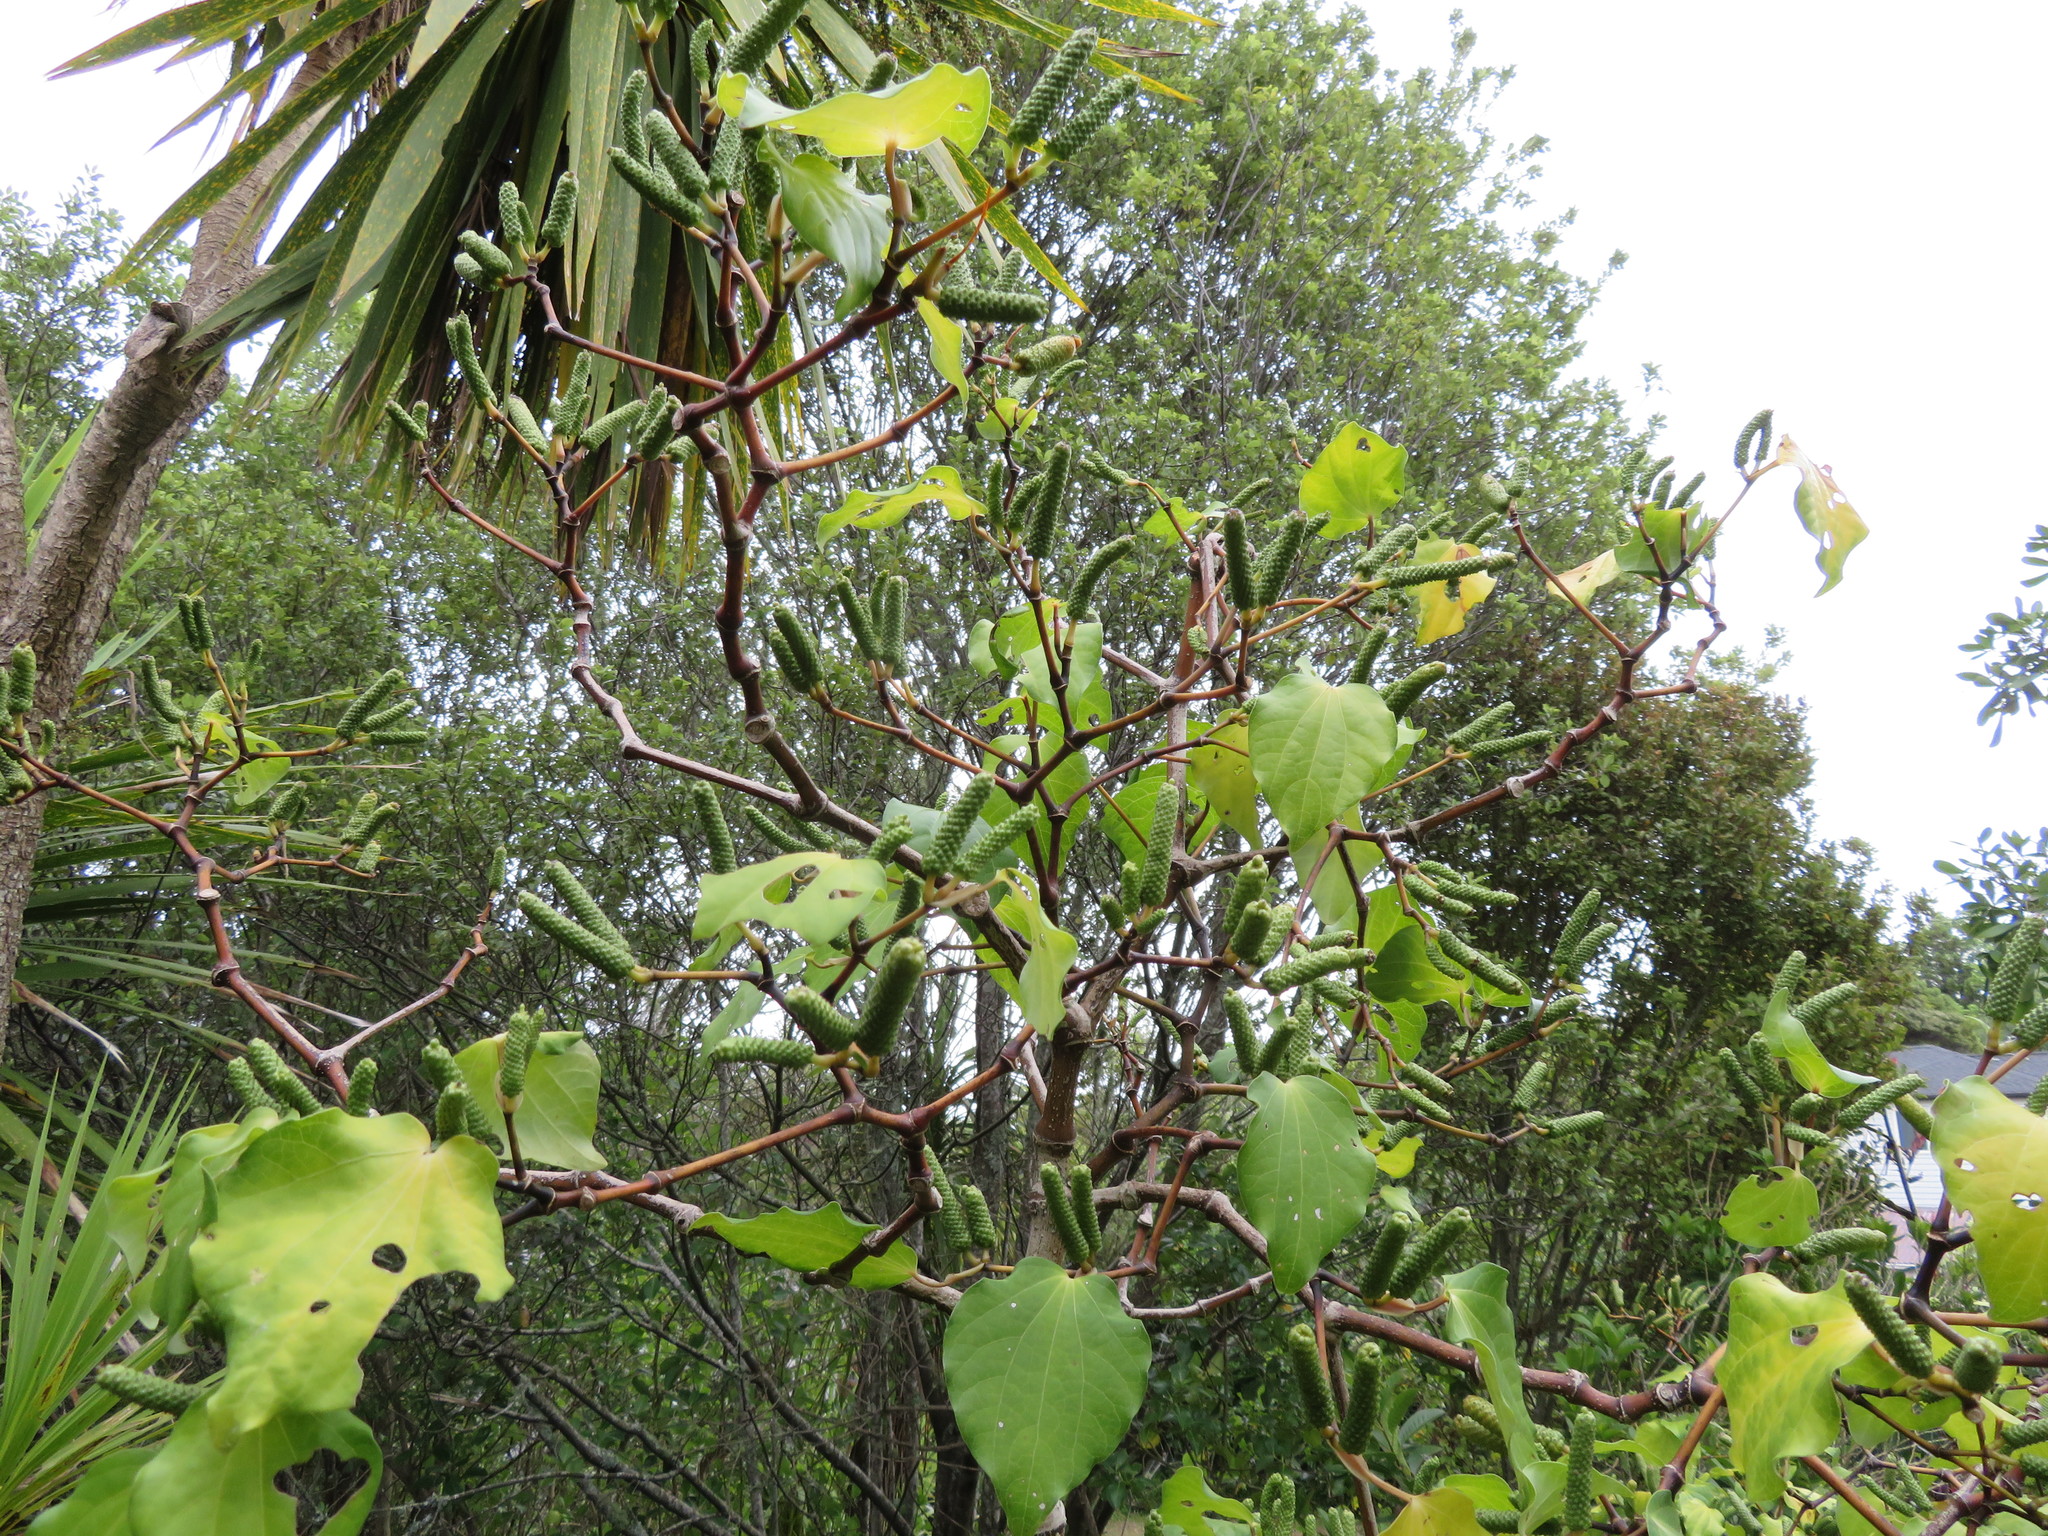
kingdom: Plantae
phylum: Tracheophyta
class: Magnoliopsida
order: Piperales
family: Piperaceae
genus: Macropiper
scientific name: Macropiper excelsum
